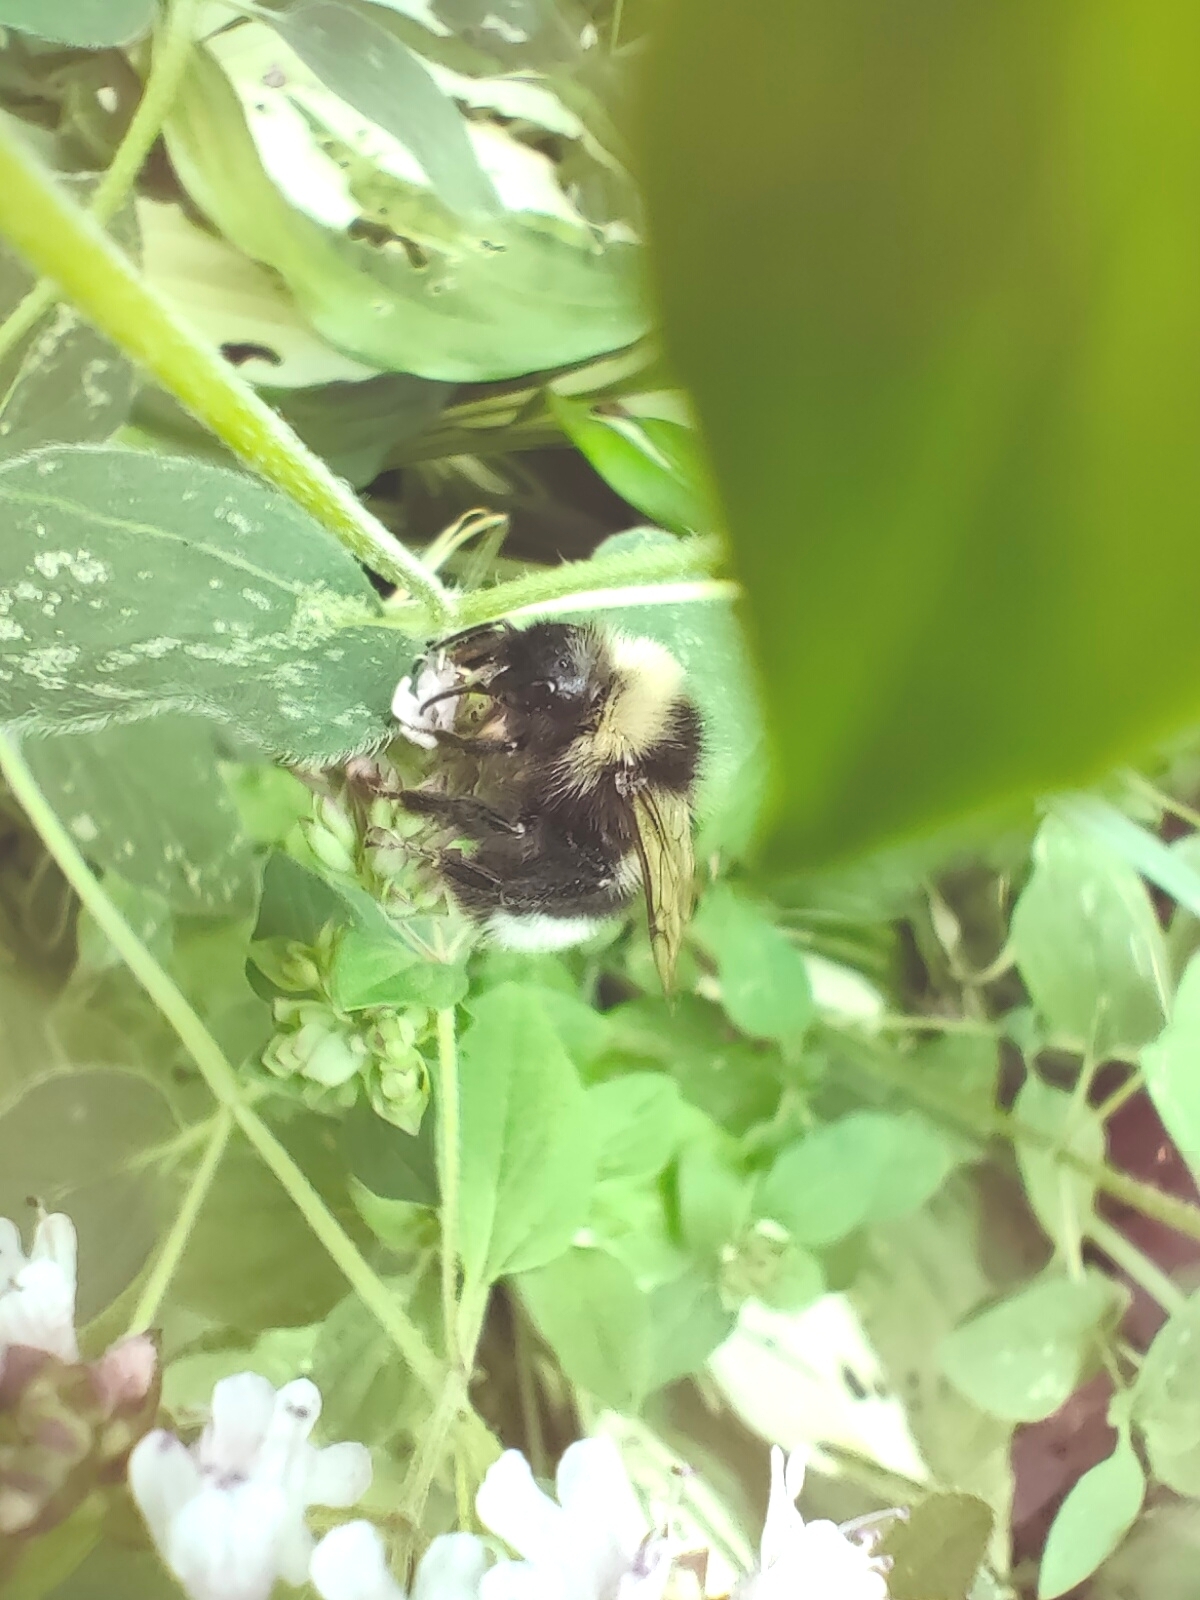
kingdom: Animalia
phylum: Arthropoda
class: Insecta
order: Hymenoptera
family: Apidae
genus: Bombus
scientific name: Bombus
